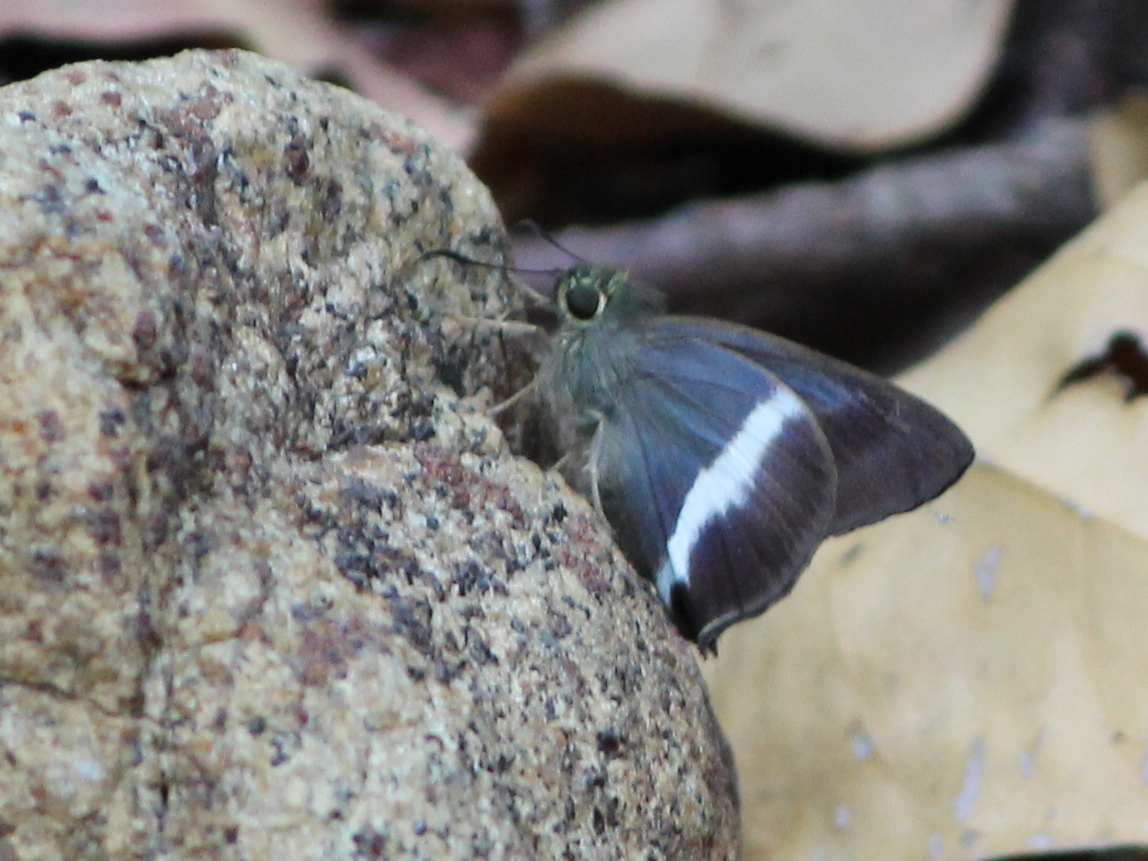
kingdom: Animalia
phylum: Arthropoda
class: Insecta
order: Lepidoptera
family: Hesperiidae
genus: Hasora
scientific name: Hasora taminatus
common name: White banded awl
